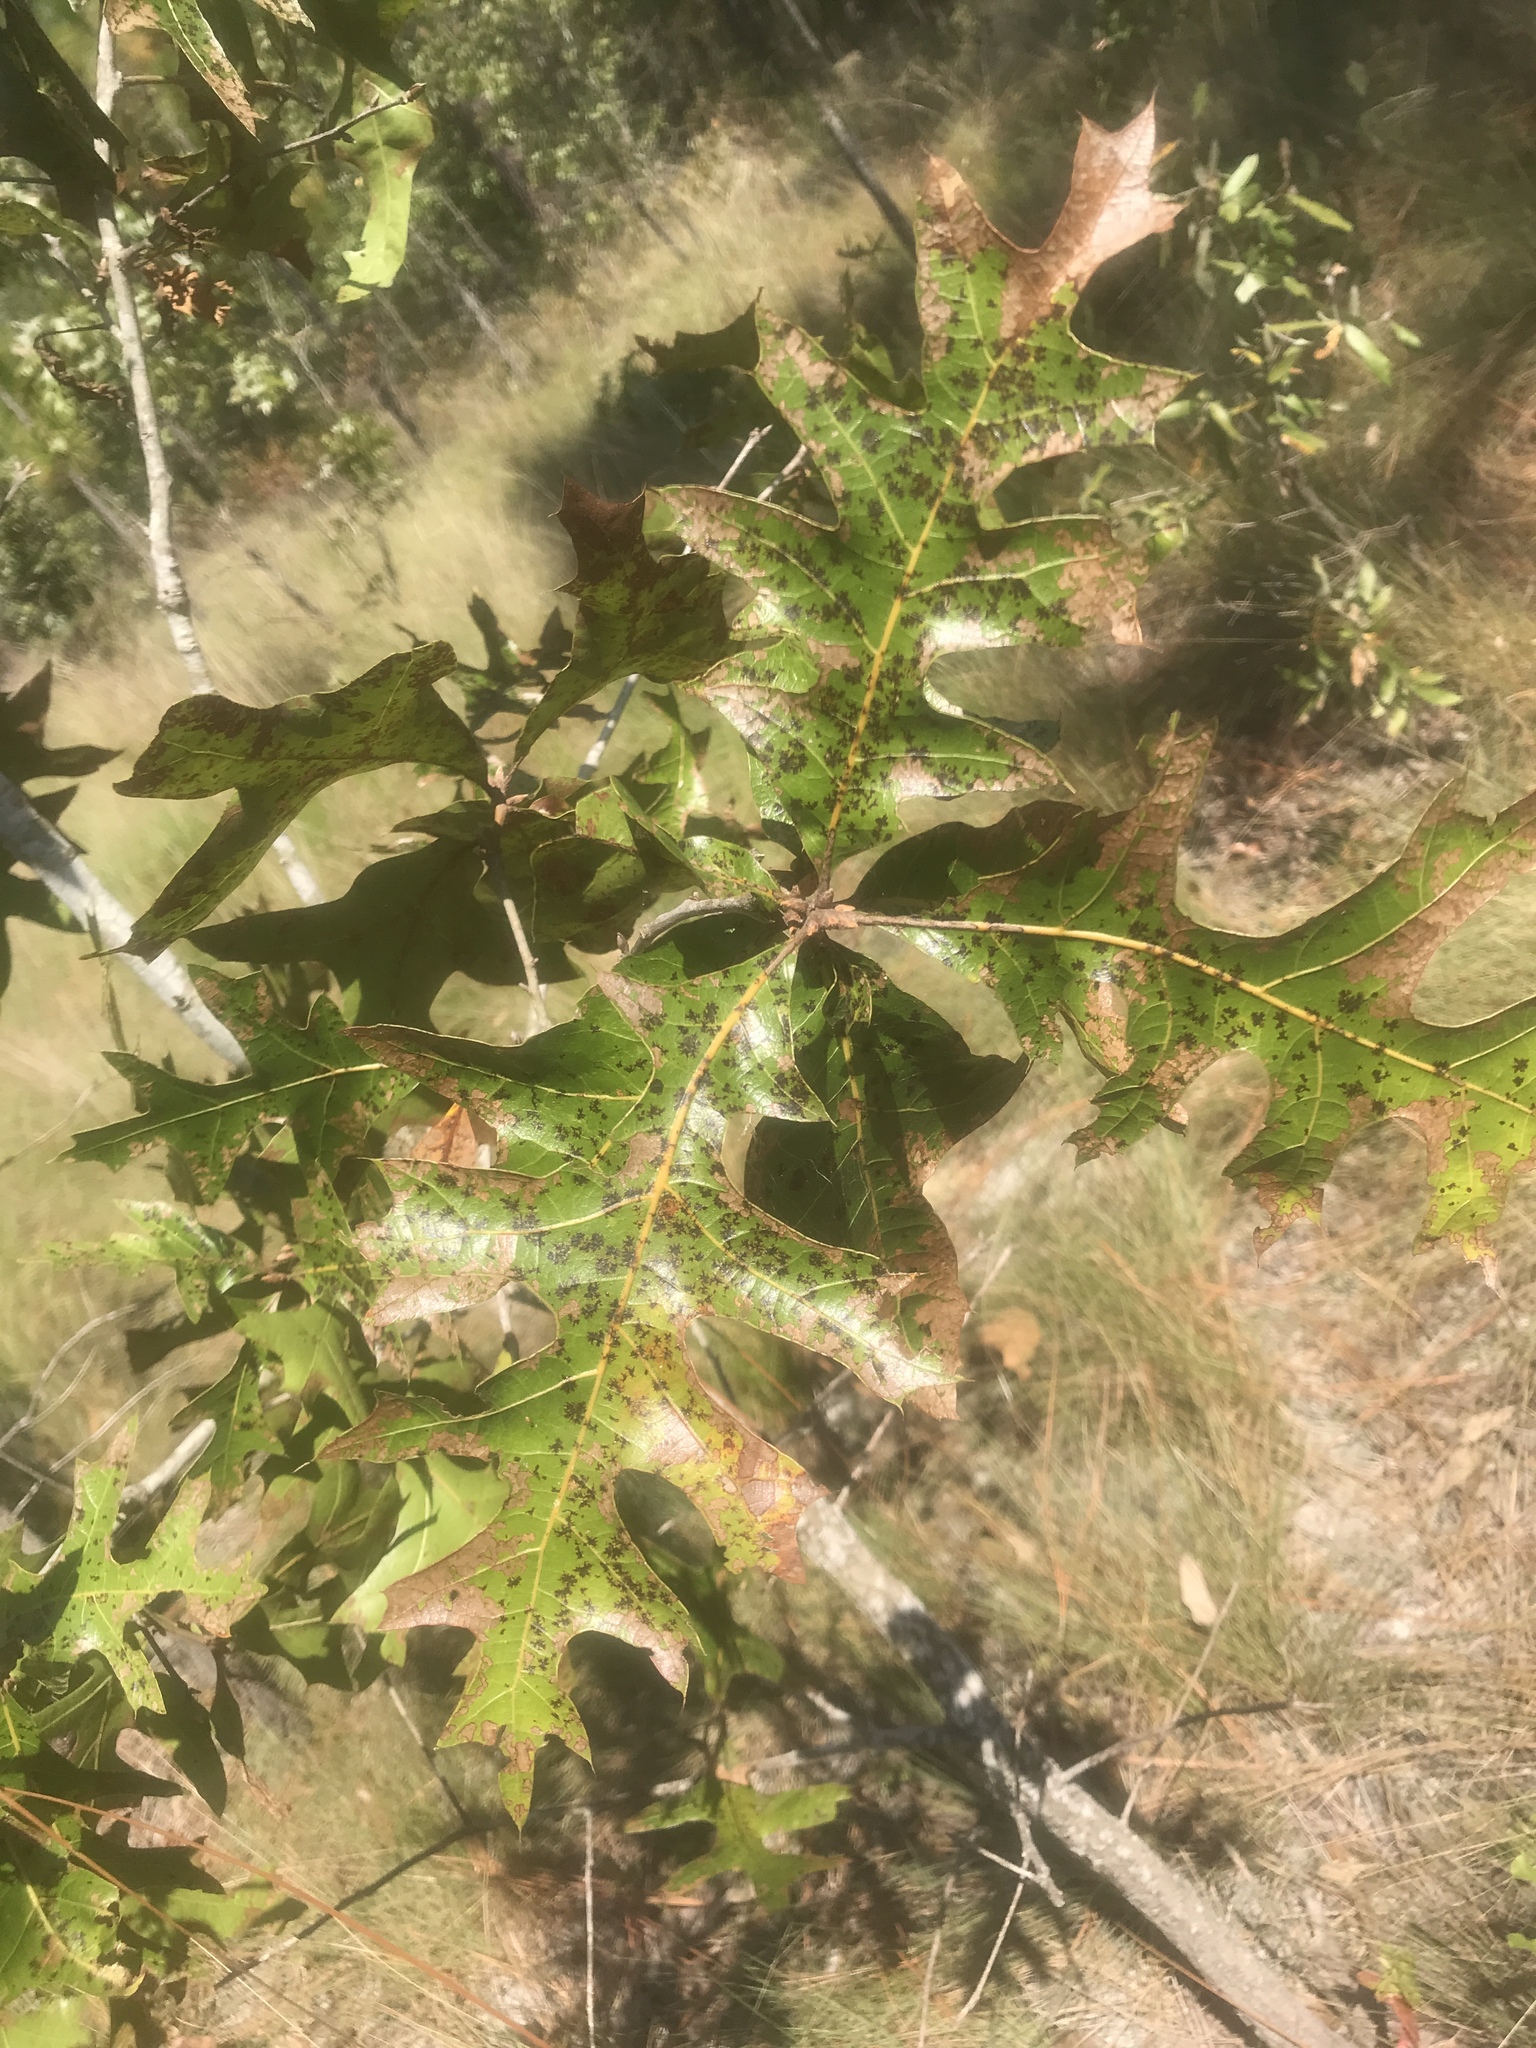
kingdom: Plantae
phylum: Tracheophyta
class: Magnoliopsida
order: Fagales
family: Fagaceae
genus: Quercus
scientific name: Quercus laevis
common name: Turkey oak
